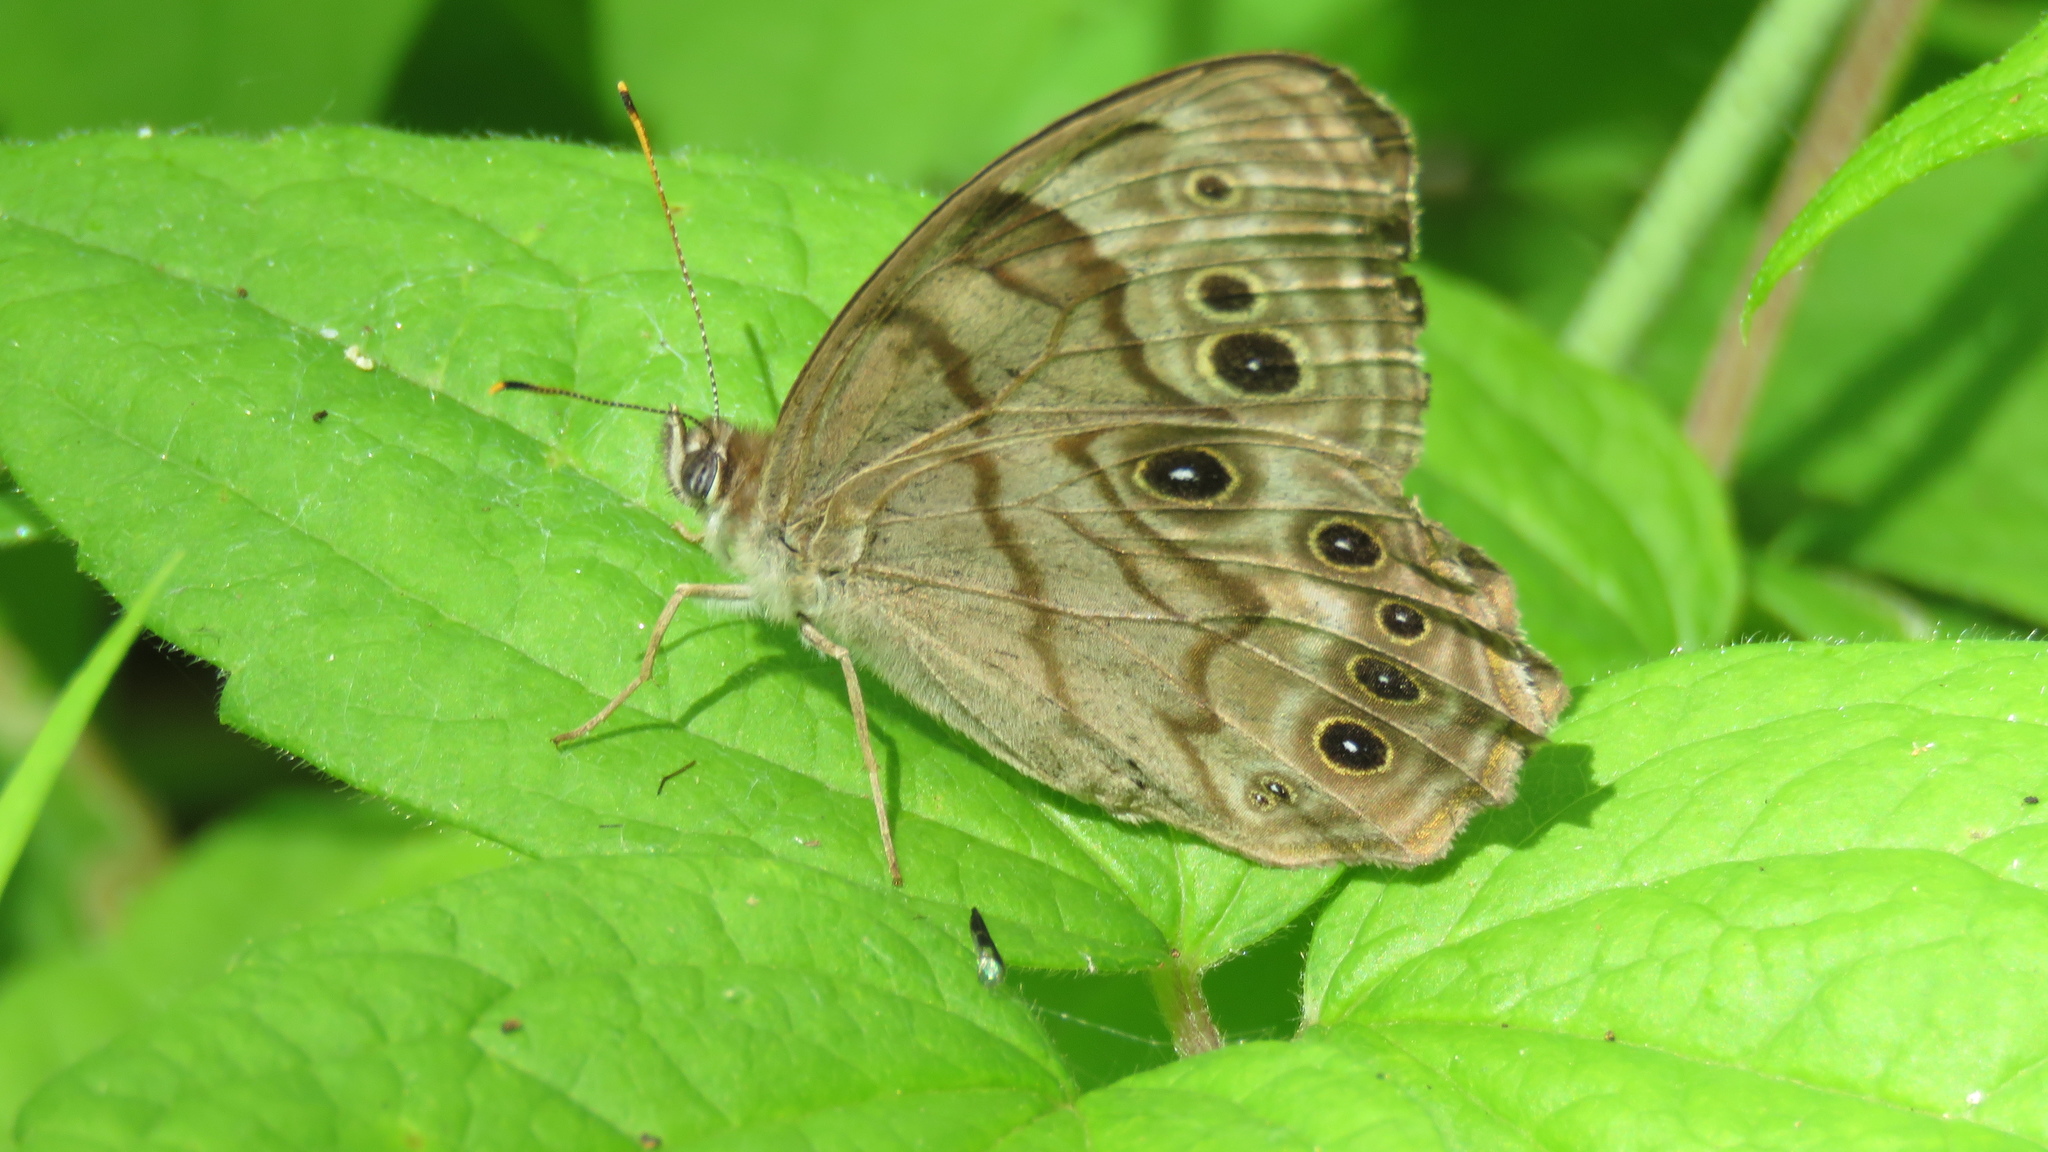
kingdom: Animalia
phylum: Arthropoda
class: Insecta
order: Lepidoptera
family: Nymphalidae
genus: Lethe
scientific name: Lethe anthedon
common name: Northern pearly-eye
